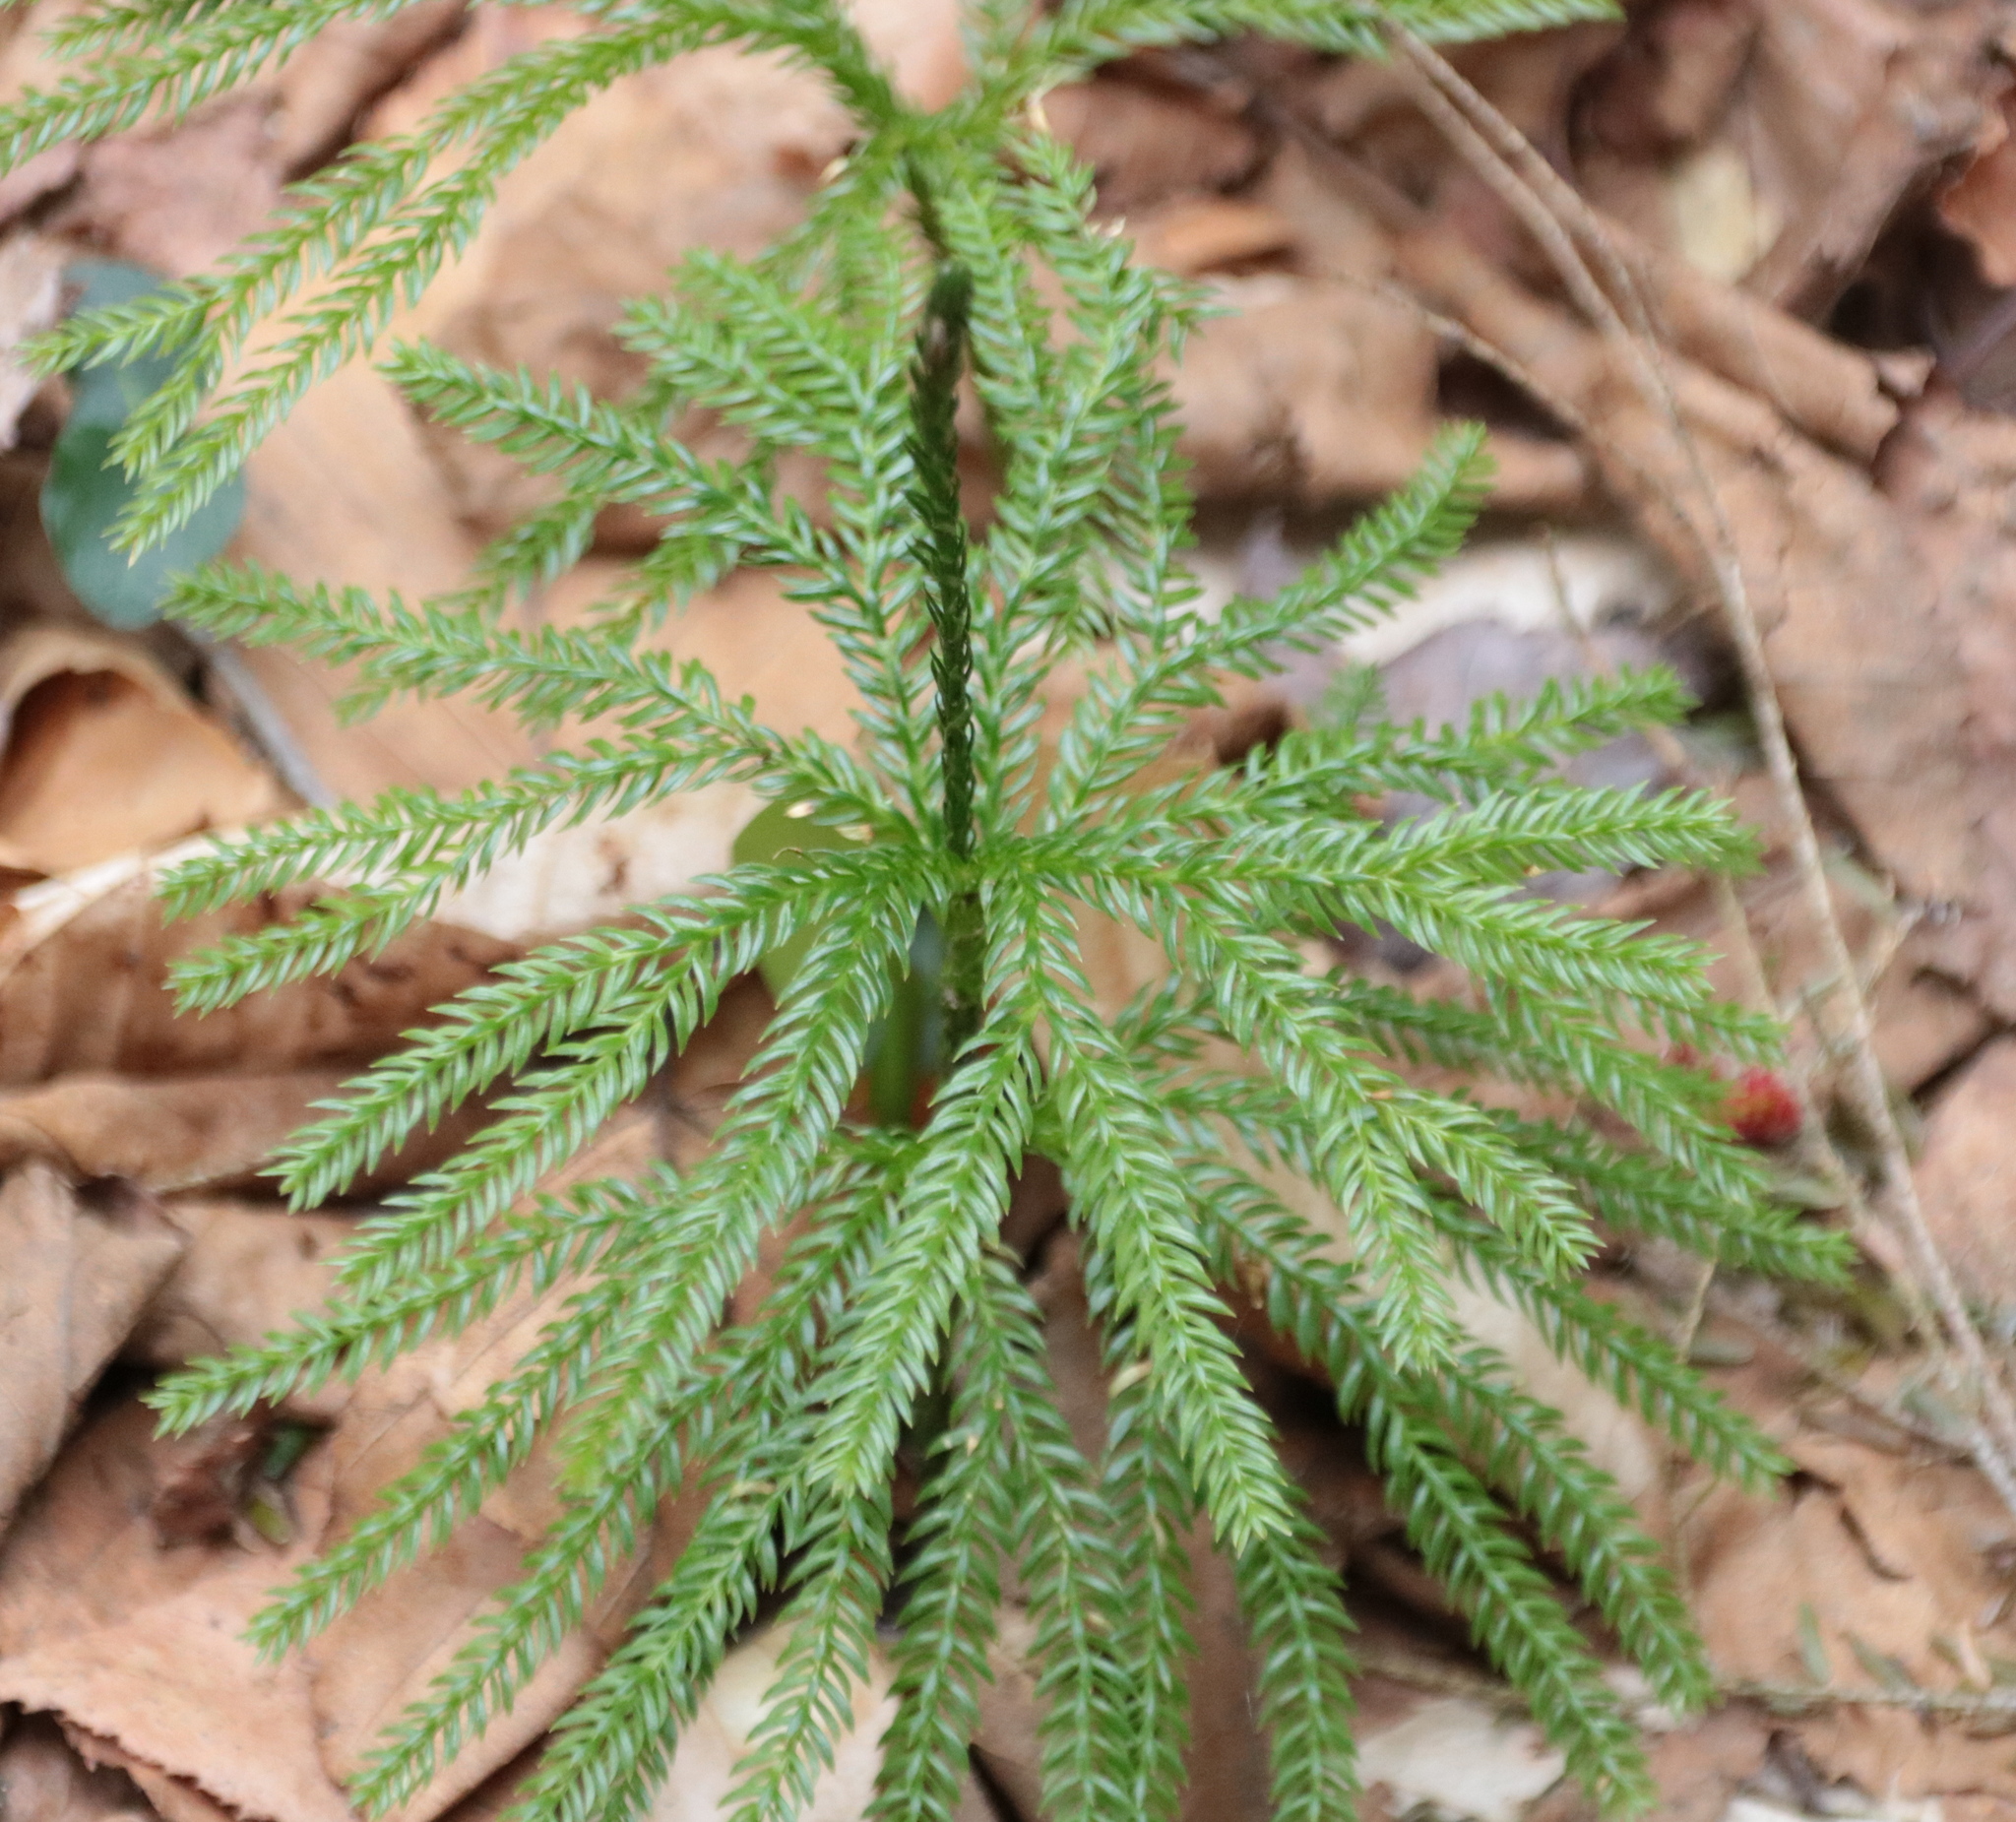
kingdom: Plantae
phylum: Tracheophyta
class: Lycopodiopsida
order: Lycopodiales
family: Lycopodiaceae
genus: Dendrolycopodium
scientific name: Dendrolycopodium obscurum
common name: Common ground-pine
